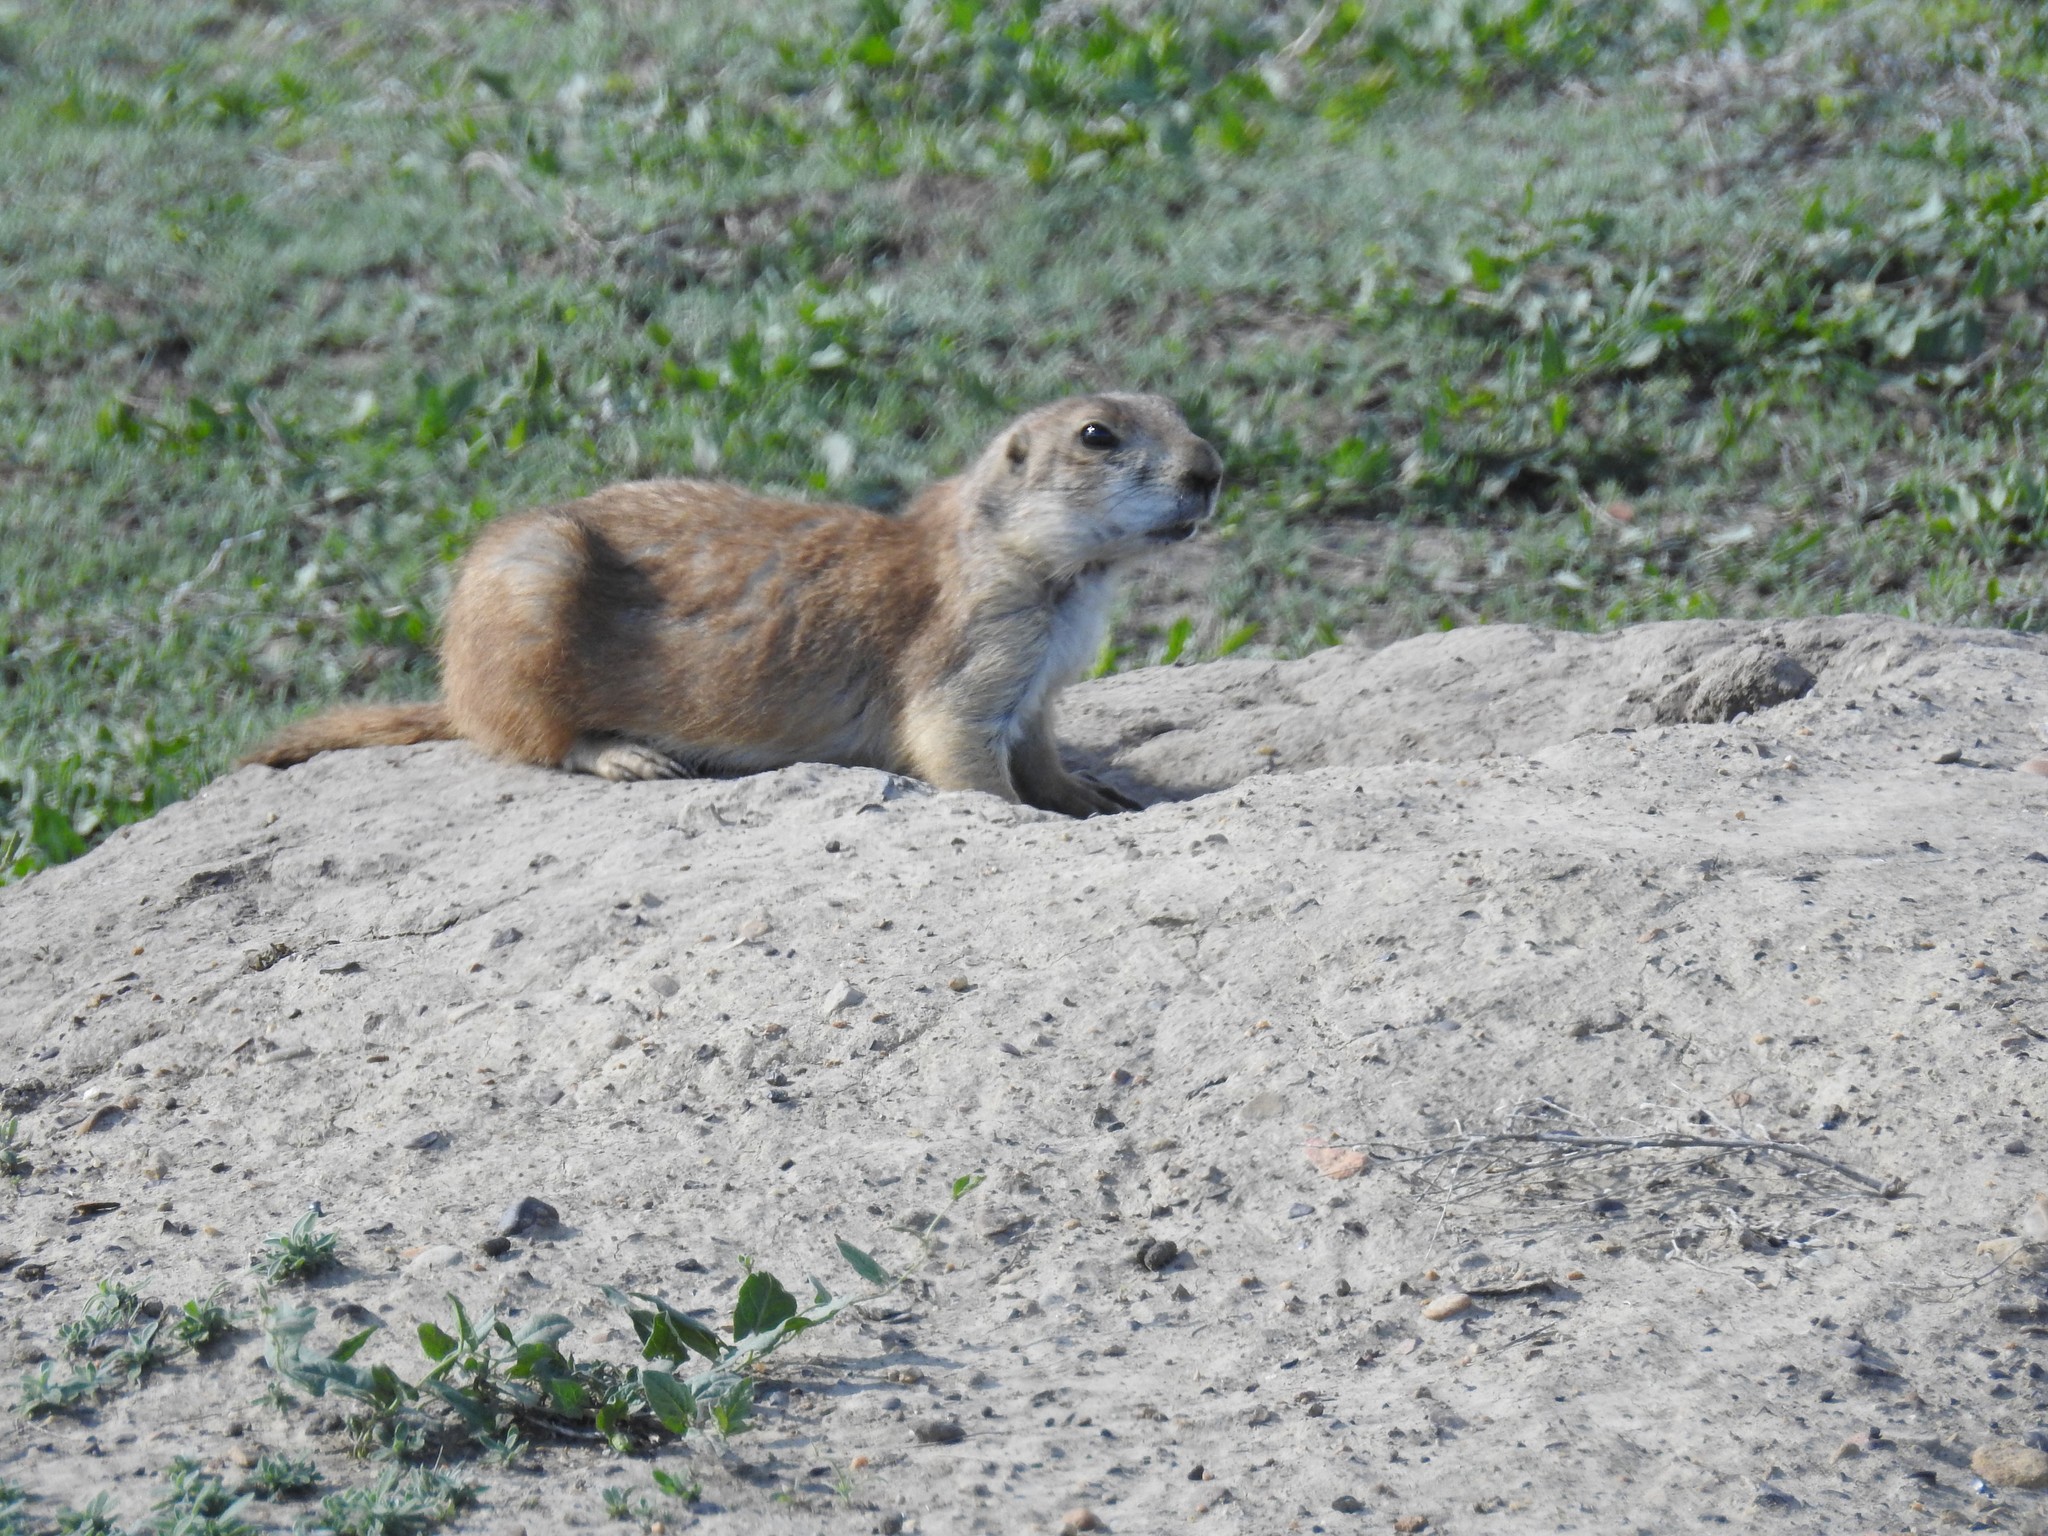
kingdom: Animalia
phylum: Chordata
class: Mammalia
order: Rodentia
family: Sciuridae
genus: Cynomys
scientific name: Cynomys ludovicianus
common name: Black-tailed prairie dog
